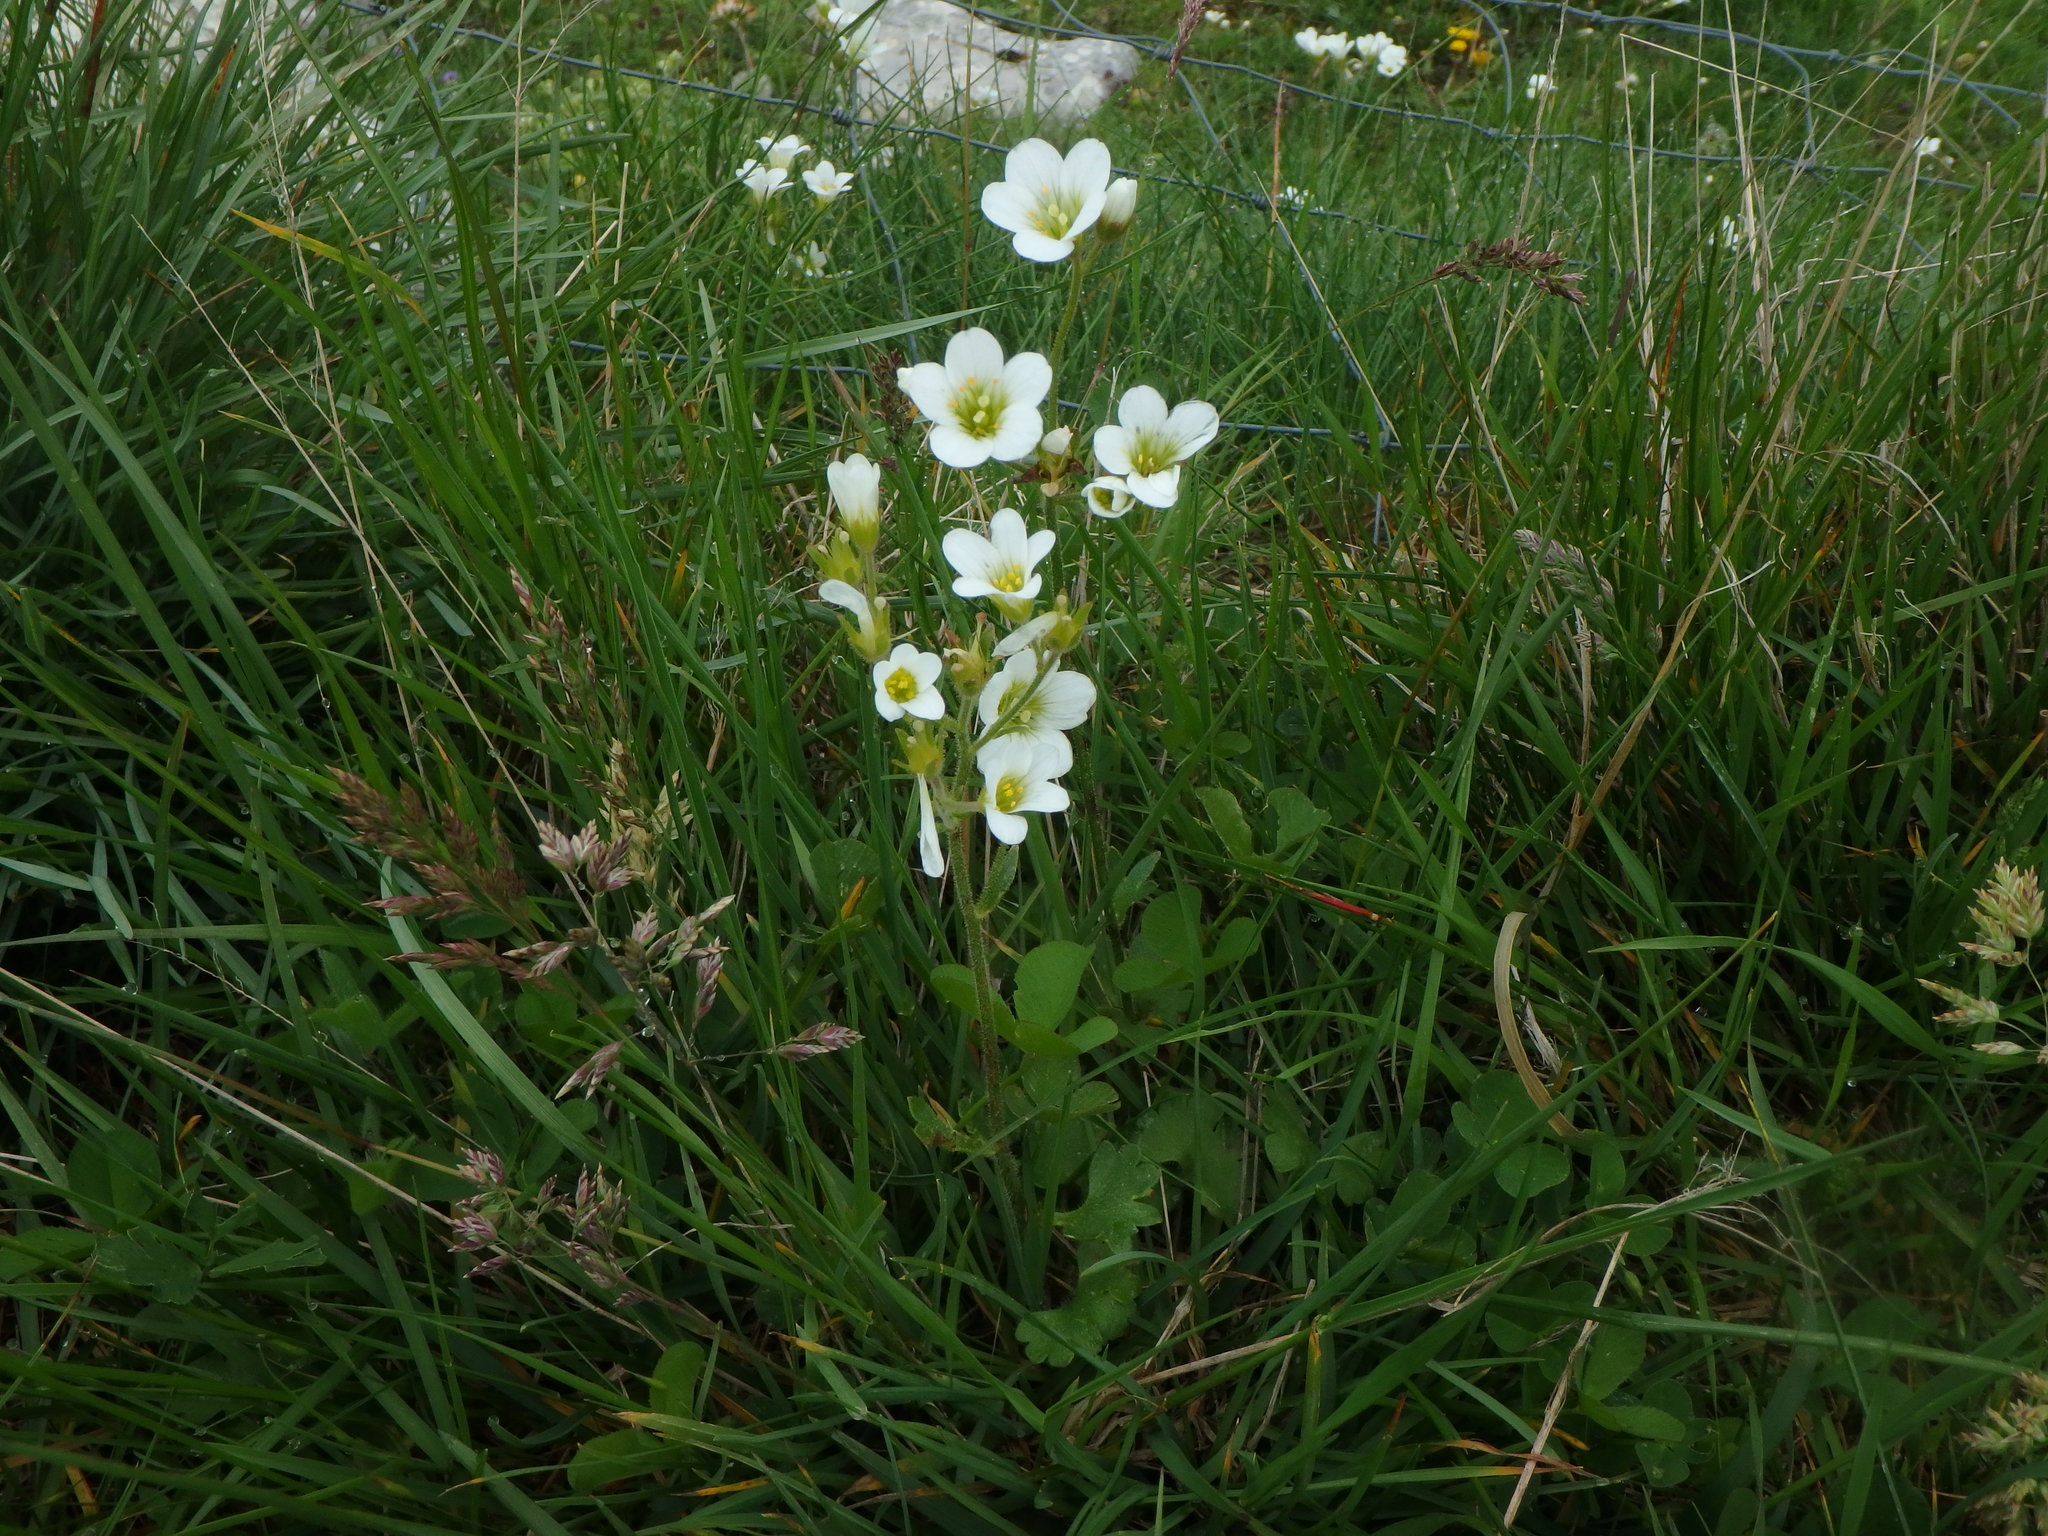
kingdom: Plantae
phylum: Tracheophyta
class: Magnoliopsida
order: Saxifragales
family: Saxifragaceae
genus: Saxifraga
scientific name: Saxifraga granulata
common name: Meadow saxifrage
